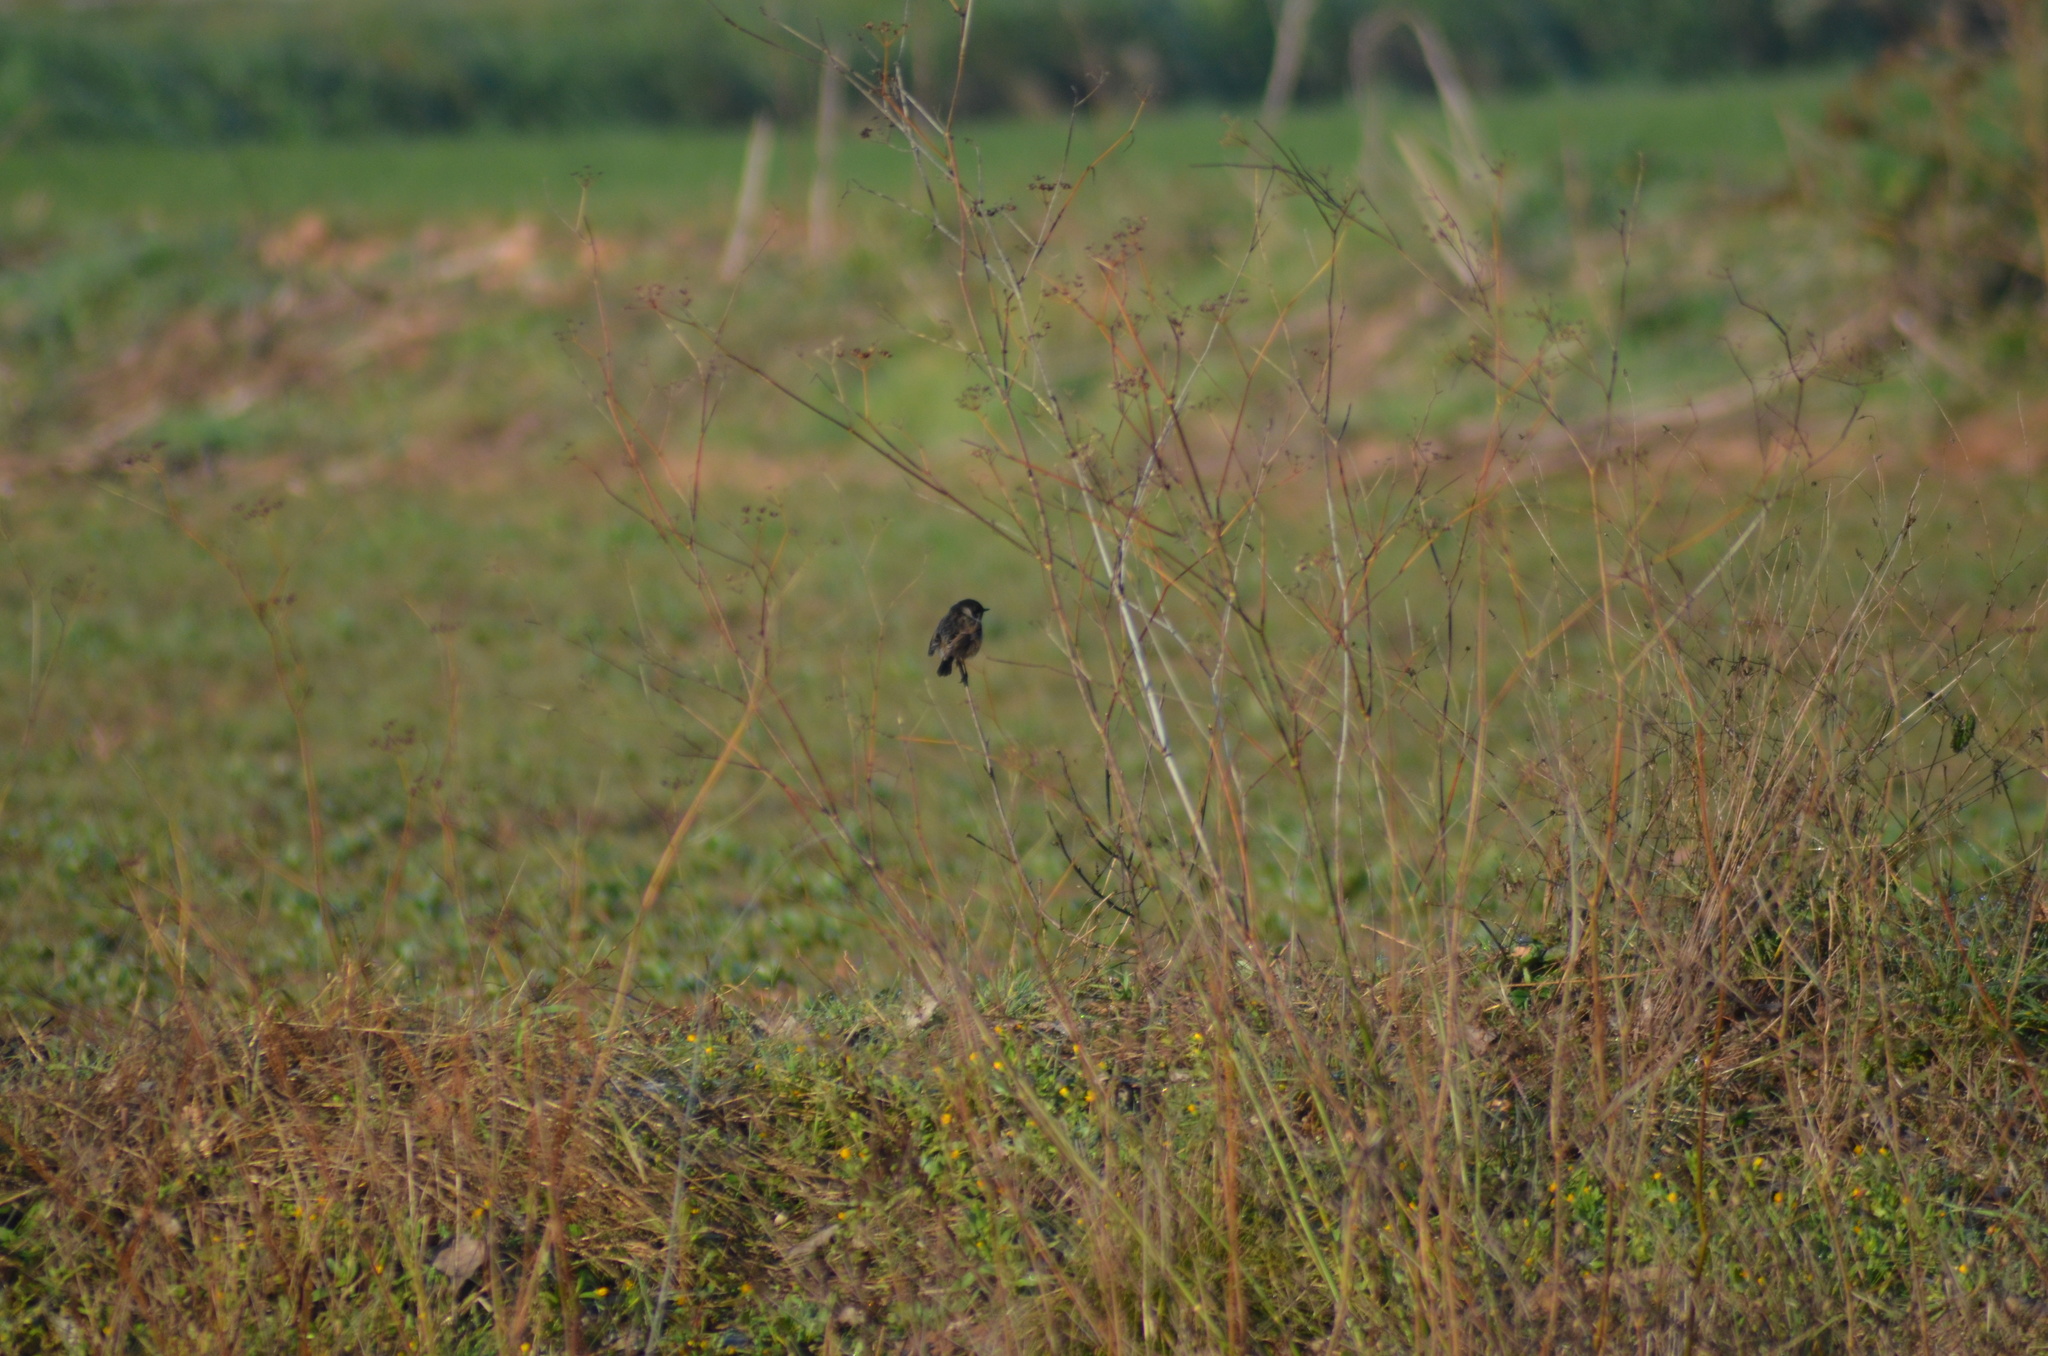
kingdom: Animalia
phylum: Chordata
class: Aves
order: Passeriformes
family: Muscicapidae
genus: Saxicola
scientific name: Saxicola rubicola
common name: European stonechat
